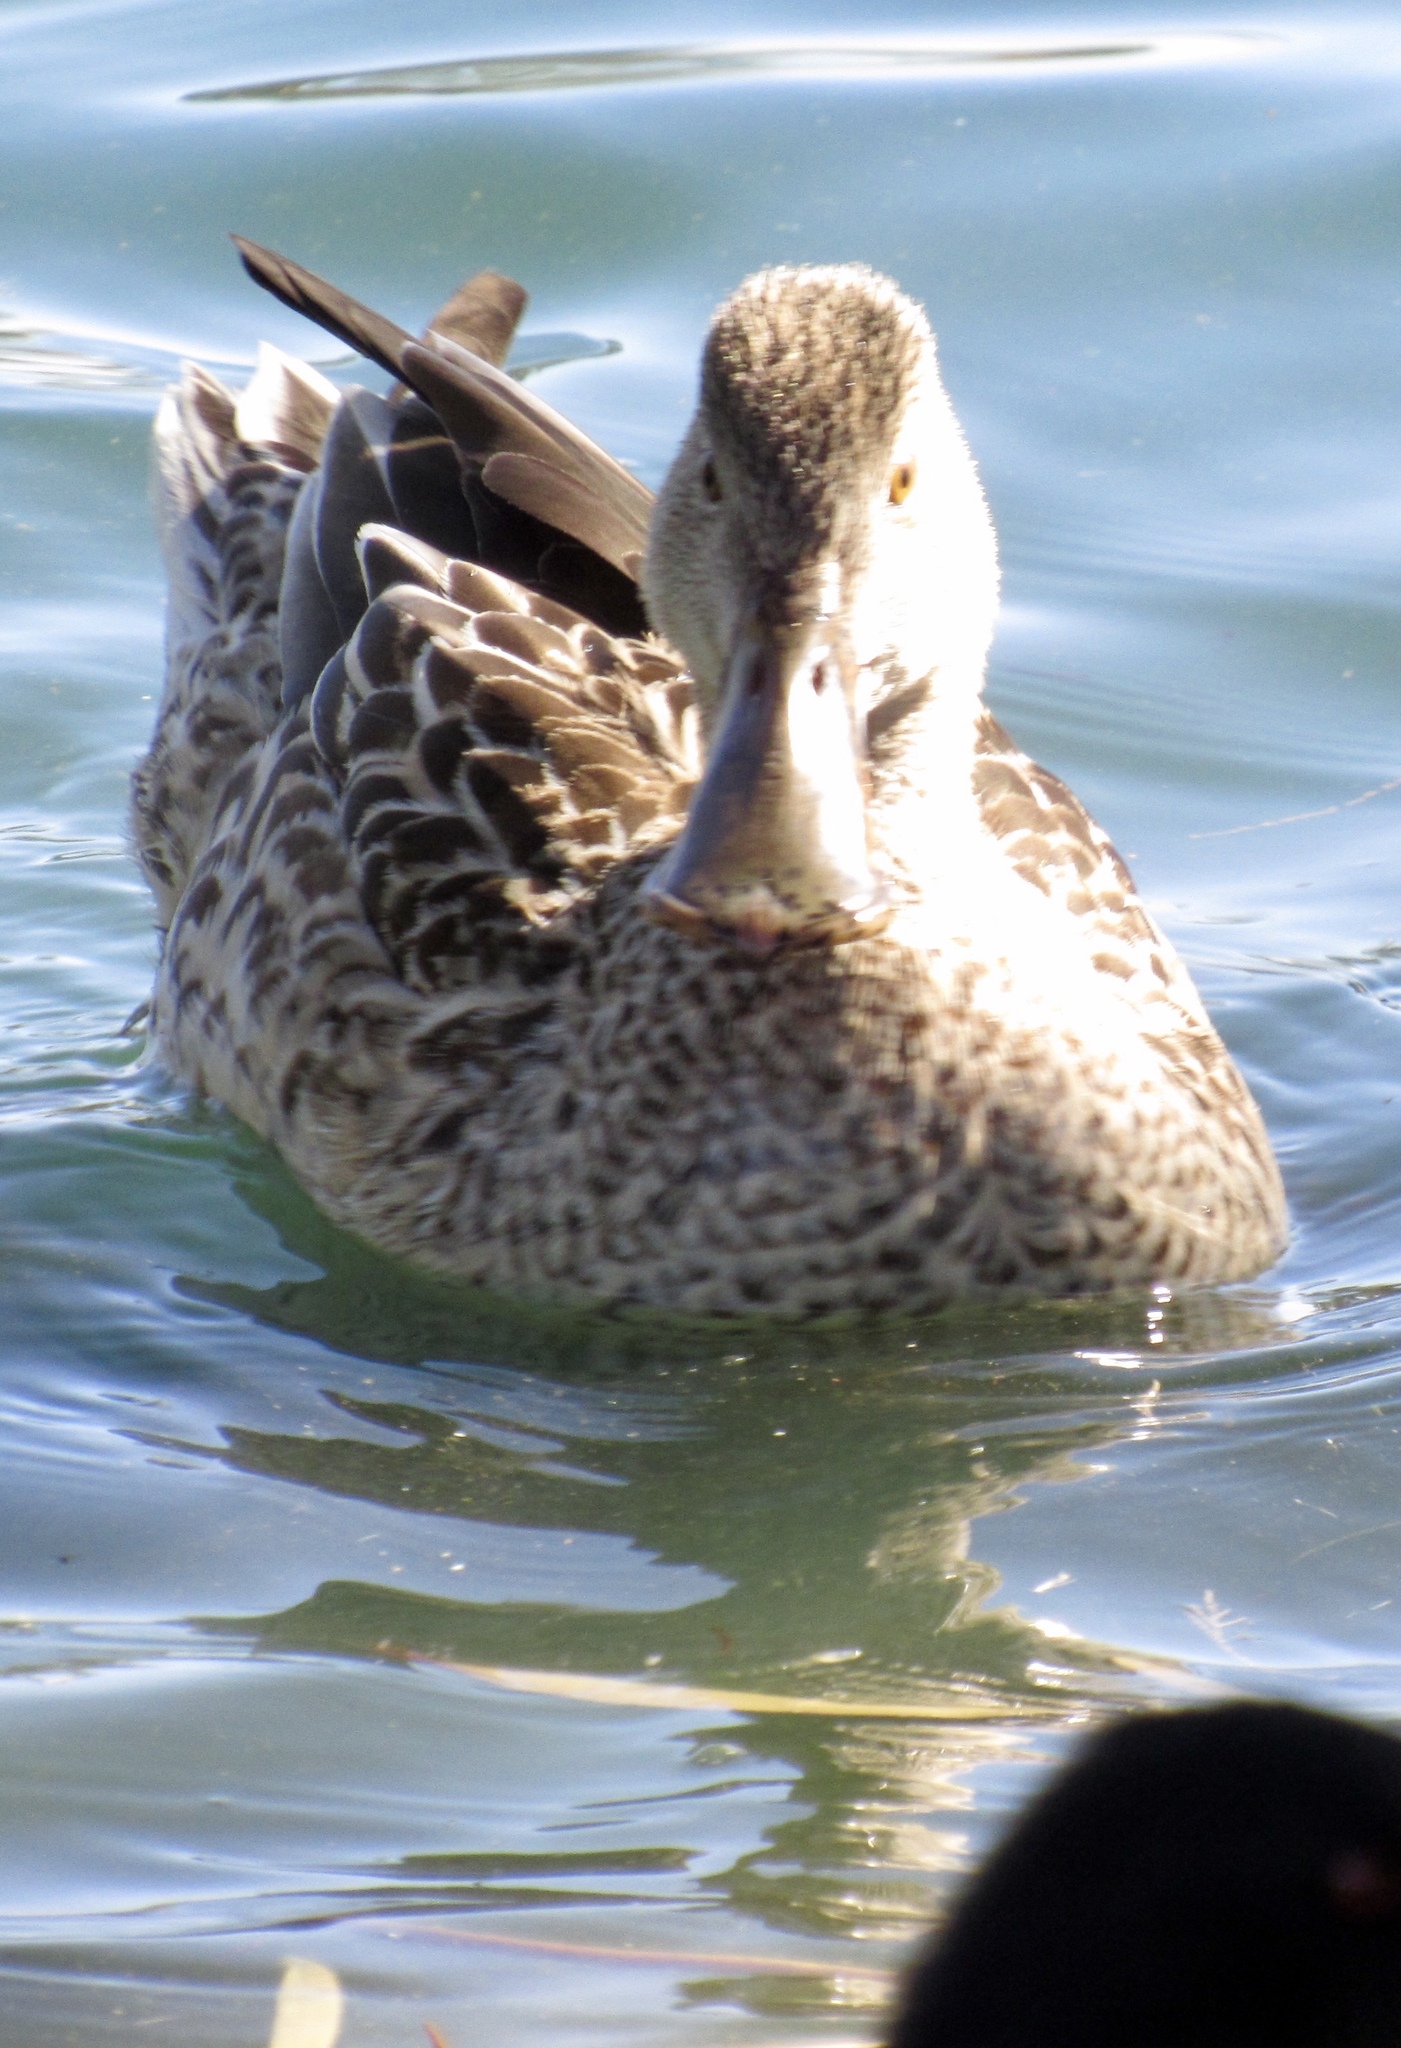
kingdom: Animalia
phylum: Chordata
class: Aves
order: Anseriformes
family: Anatidae
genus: Spatula
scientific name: Spatula clypeata
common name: Northern shoveler
